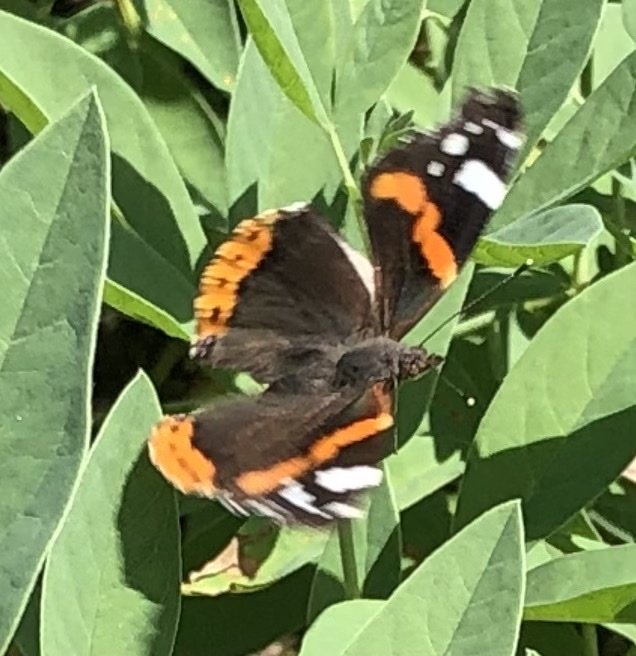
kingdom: Animalia
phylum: Arthropoda
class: Insecta
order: Lepidoptera
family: Nymphalidae
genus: Vanessa
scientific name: Vanessa atalanta
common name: Red admiral
